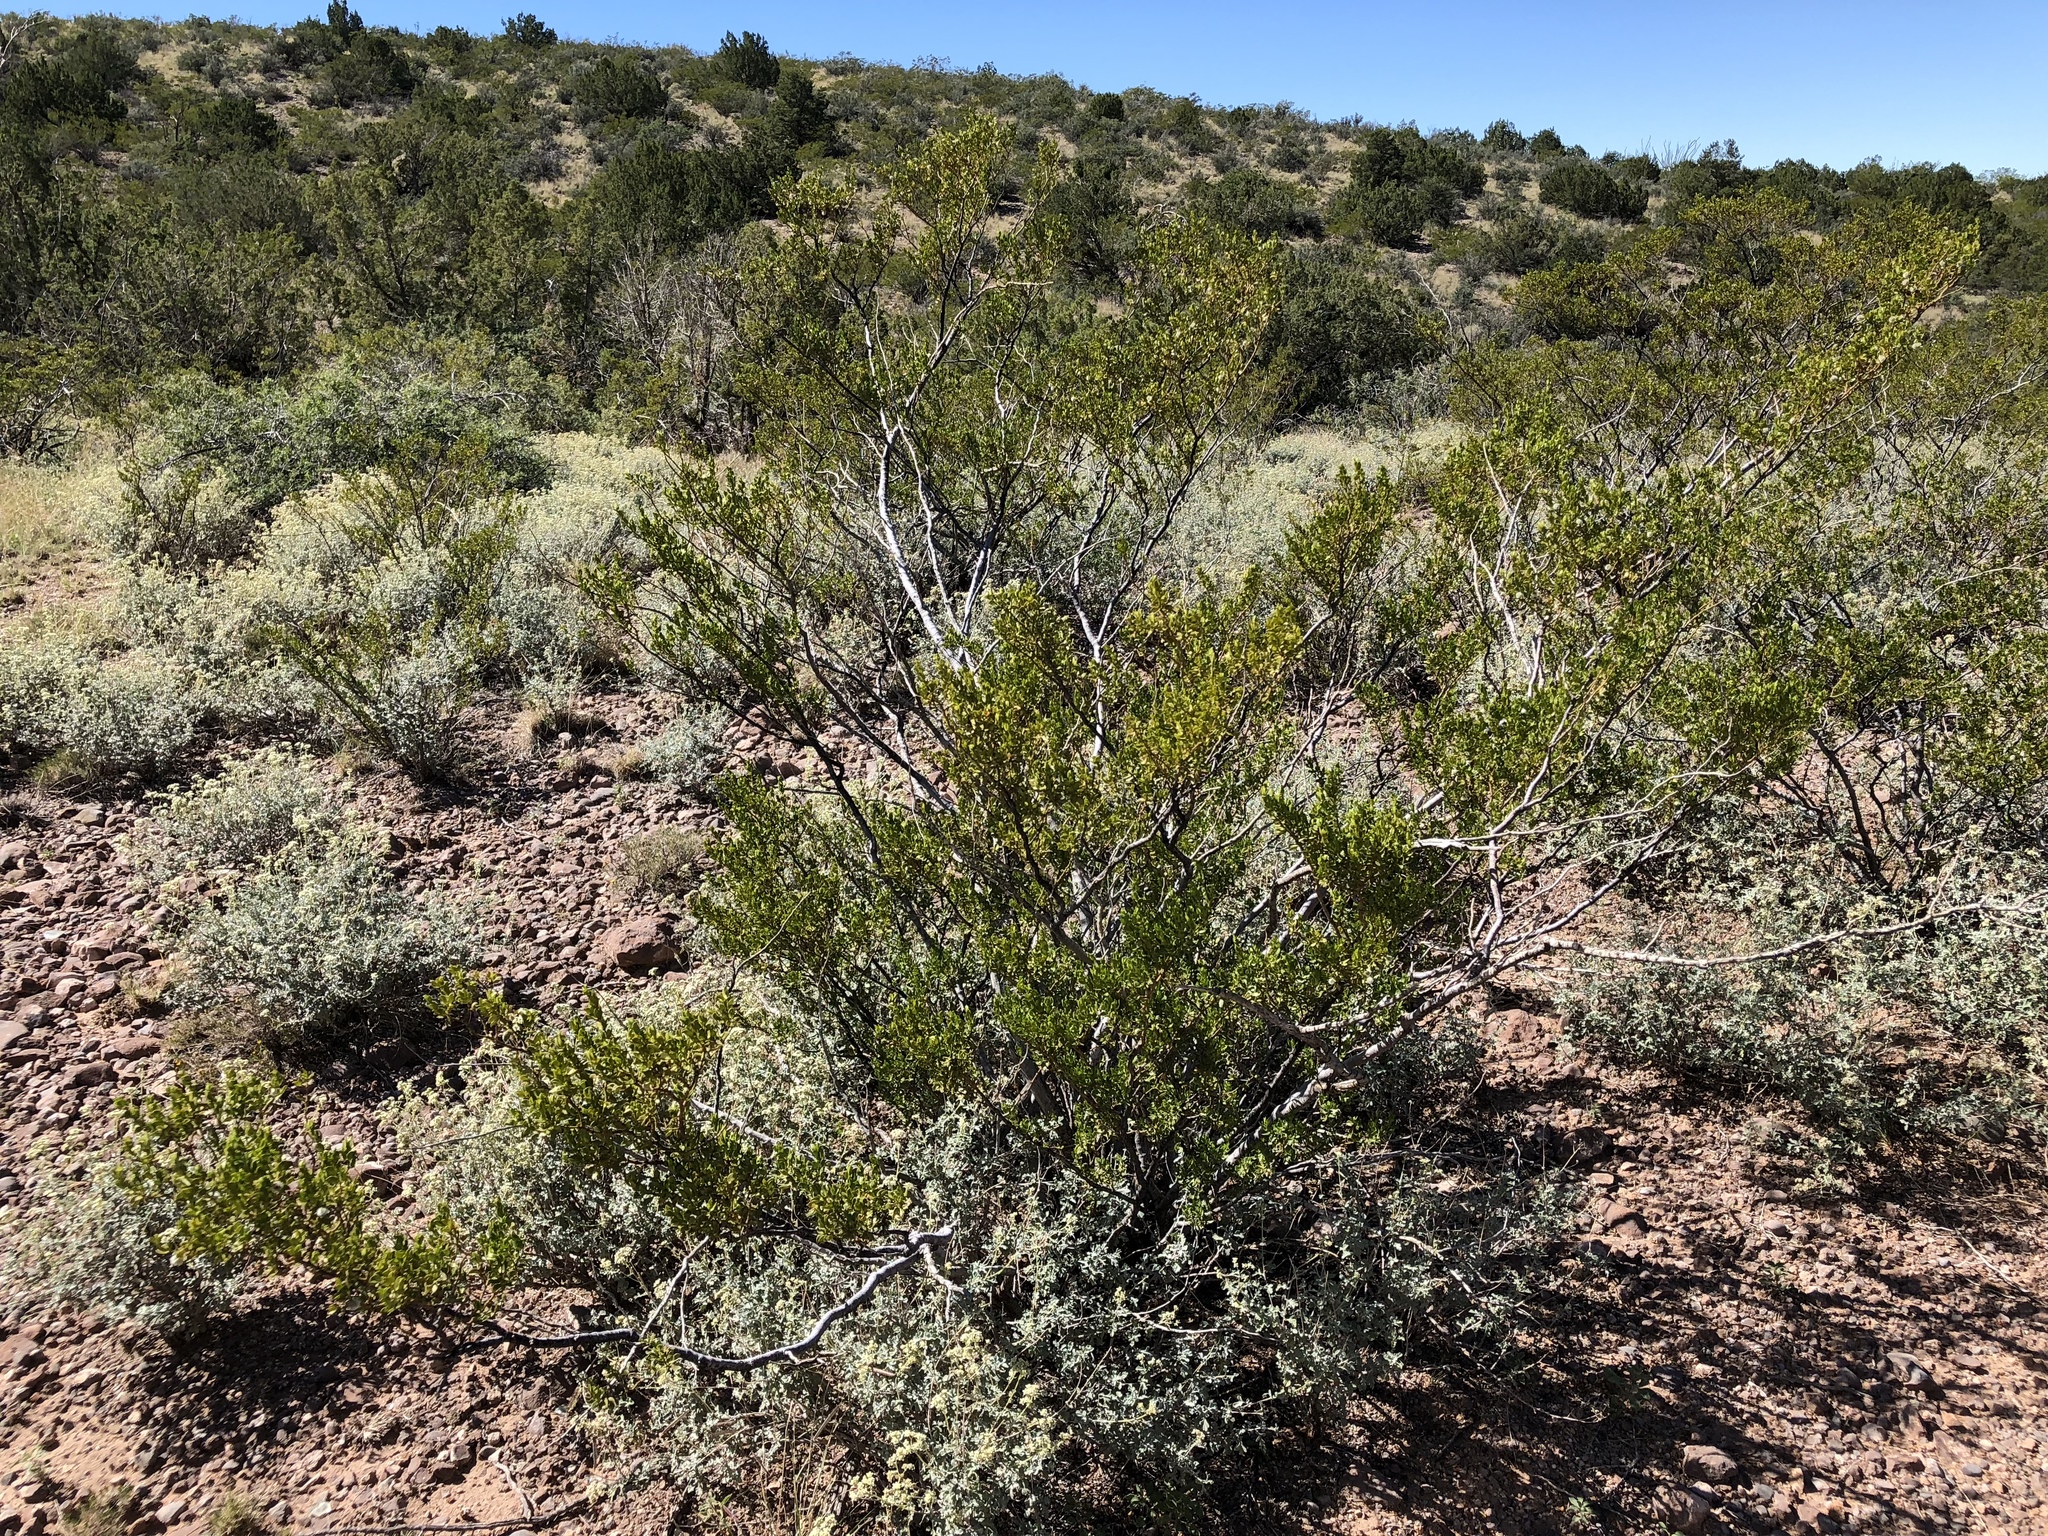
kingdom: Plantae
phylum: Tracheophyta
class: Magnoliopsida
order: Zygophyllales
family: Zygophyllaceae
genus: Larrea
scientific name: Larrea tridentata
